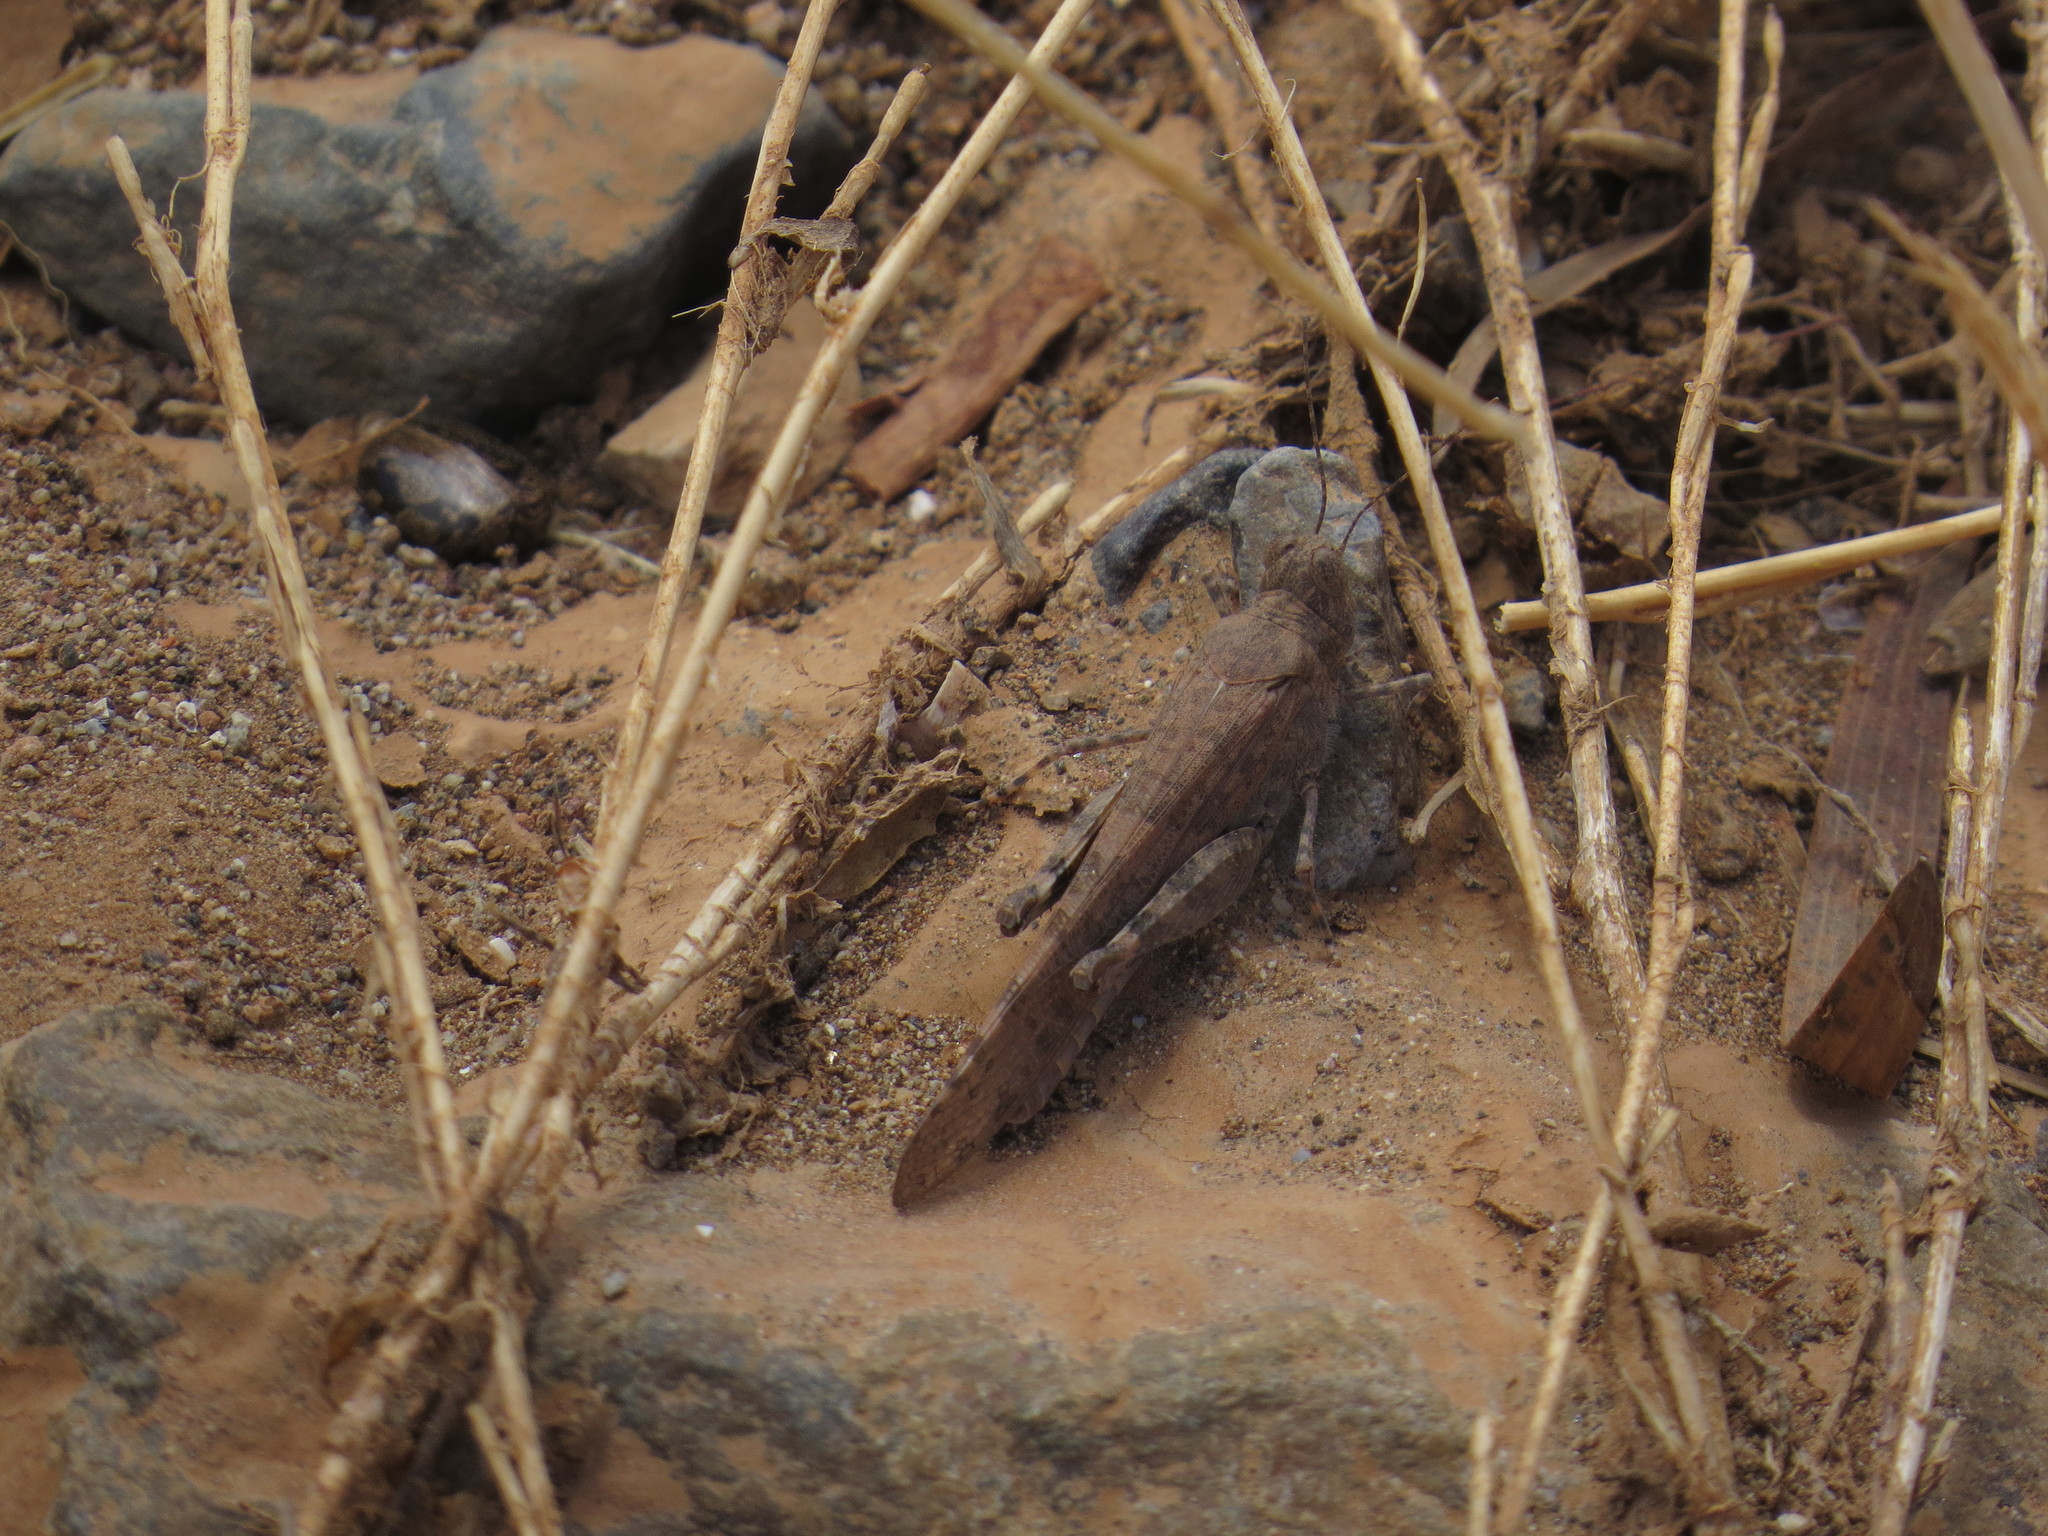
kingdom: Animalia
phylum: Arthropoda
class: Insecta
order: Orthoptera
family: Acrididae
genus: Sphingonotus
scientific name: Sphingonotus rubescens
